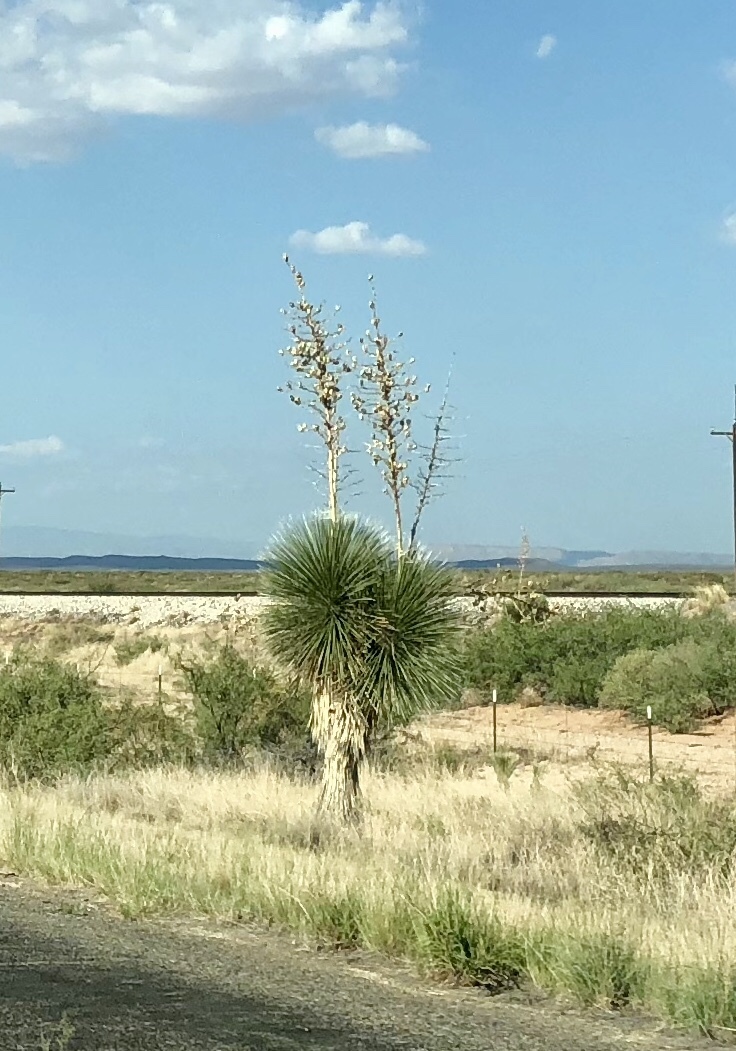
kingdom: Plantae
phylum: Tracheophyta
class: Liliopsida
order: Asparagales
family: Asparagaceae
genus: Yucca
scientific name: Yucca elata
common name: Palmella
